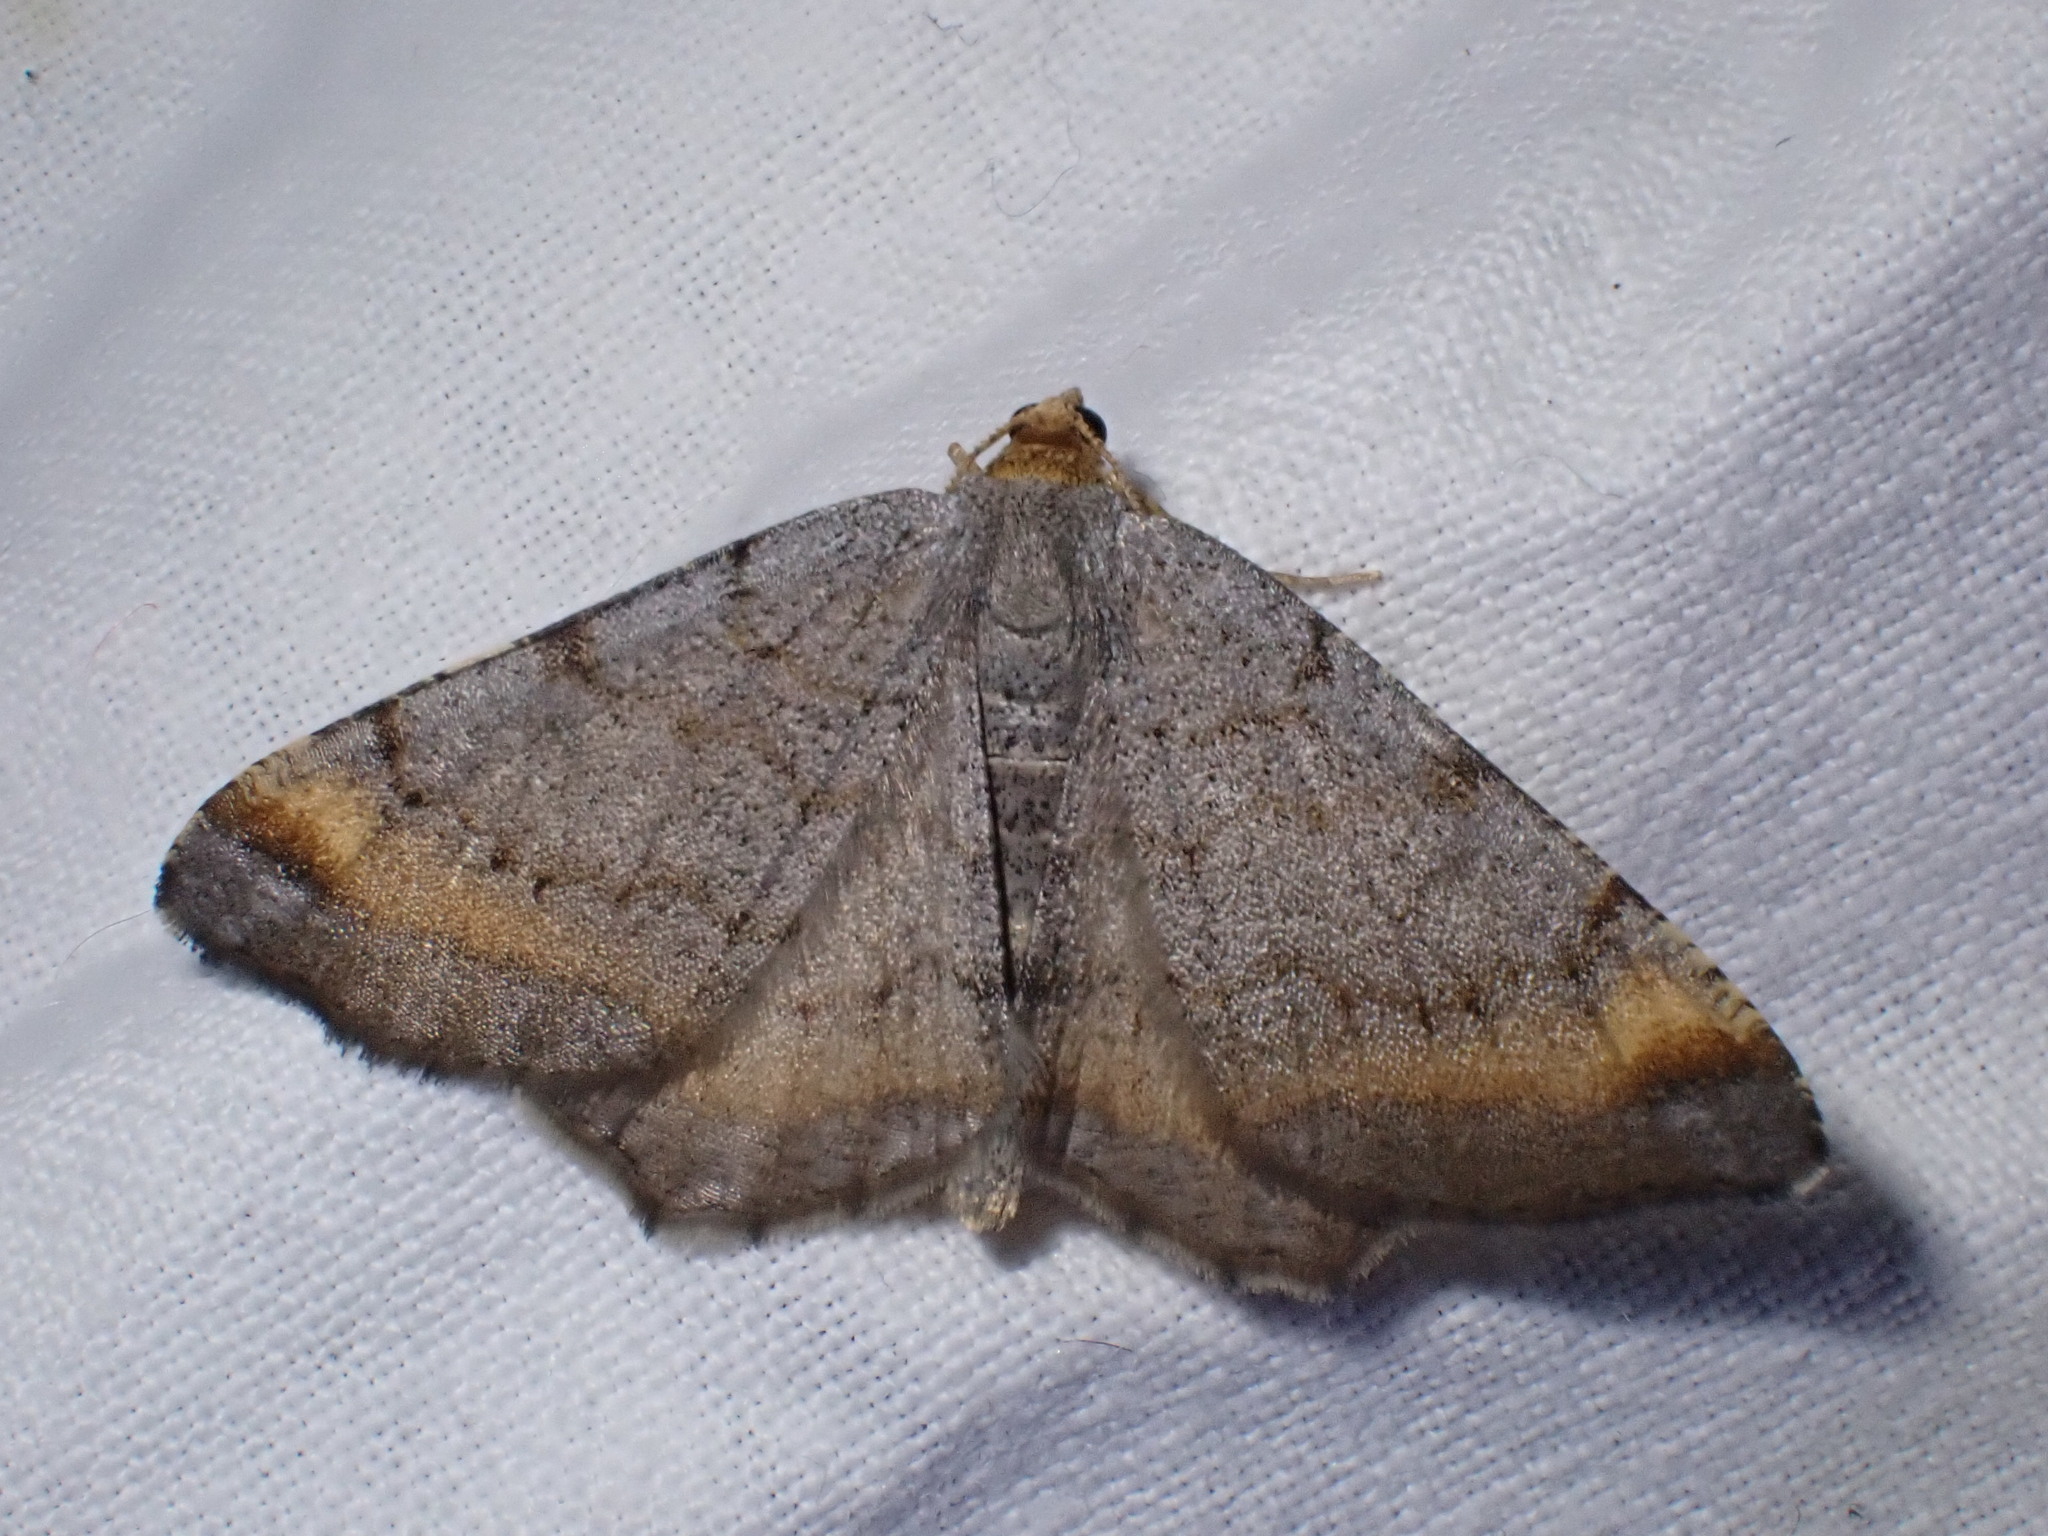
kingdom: Animalia
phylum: Arthropoda
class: Insecta
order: Lepidoptera
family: Geometridae
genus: Macaria
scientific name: Macaria liturata
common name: Tawny-barred angle
